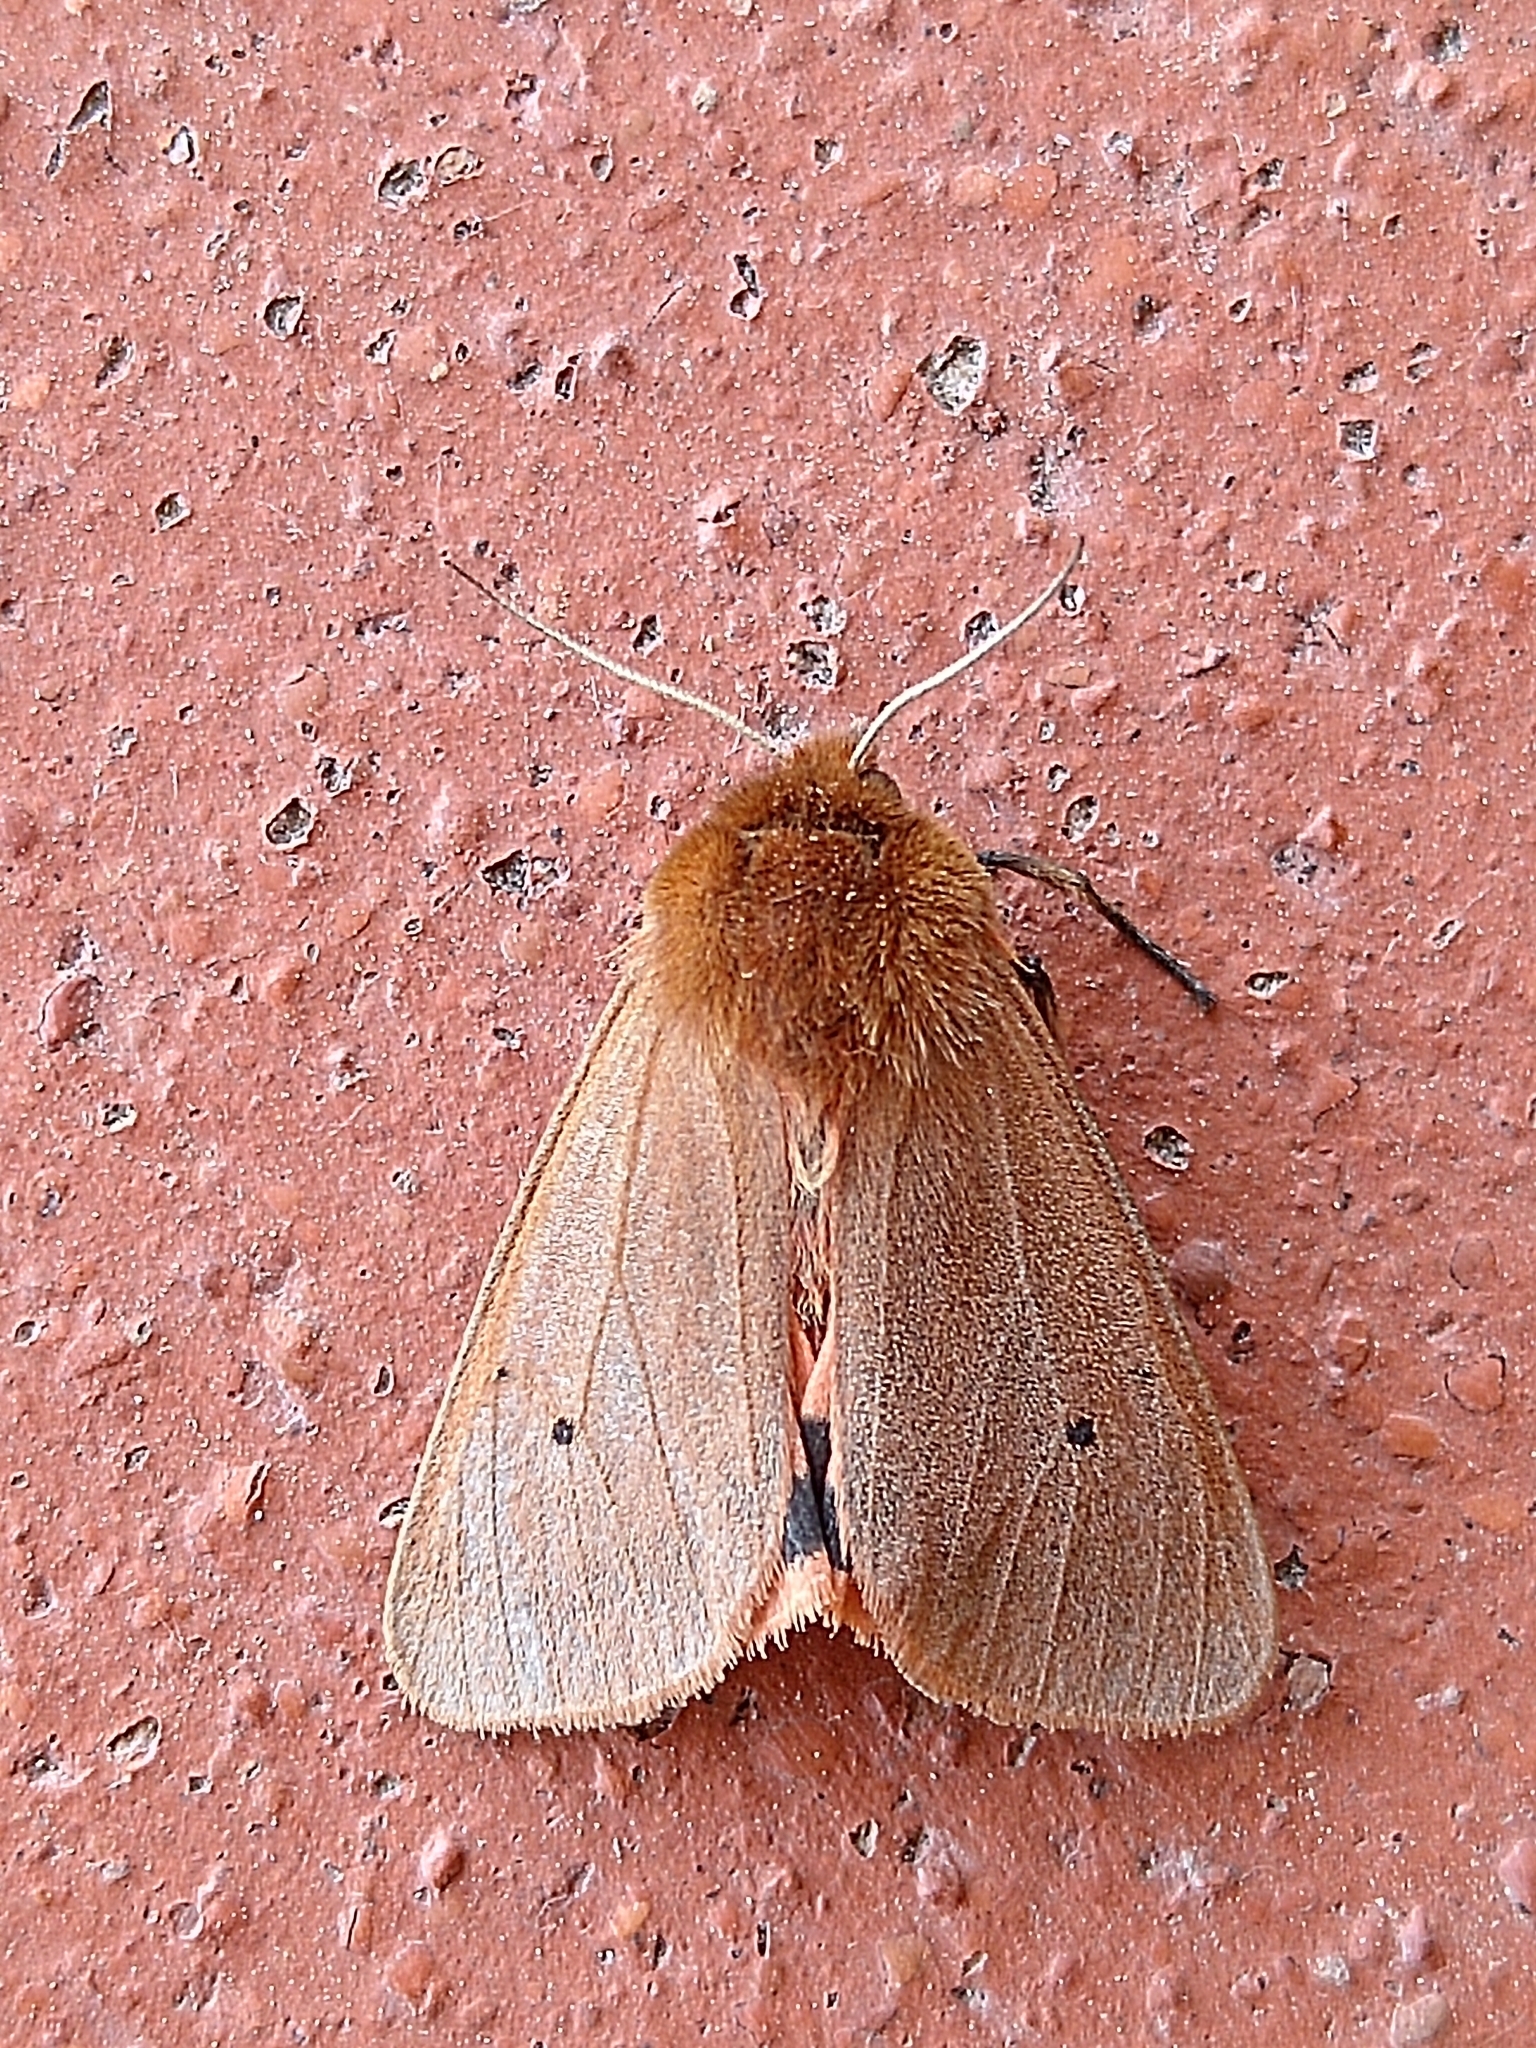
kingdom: Animalia
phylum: Arthropoda
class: Insecta
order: Lepidoptera
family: Erebidae
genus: Phragmatobia
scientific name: Phragmatobia fuliginosa
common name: Ruby tiger
